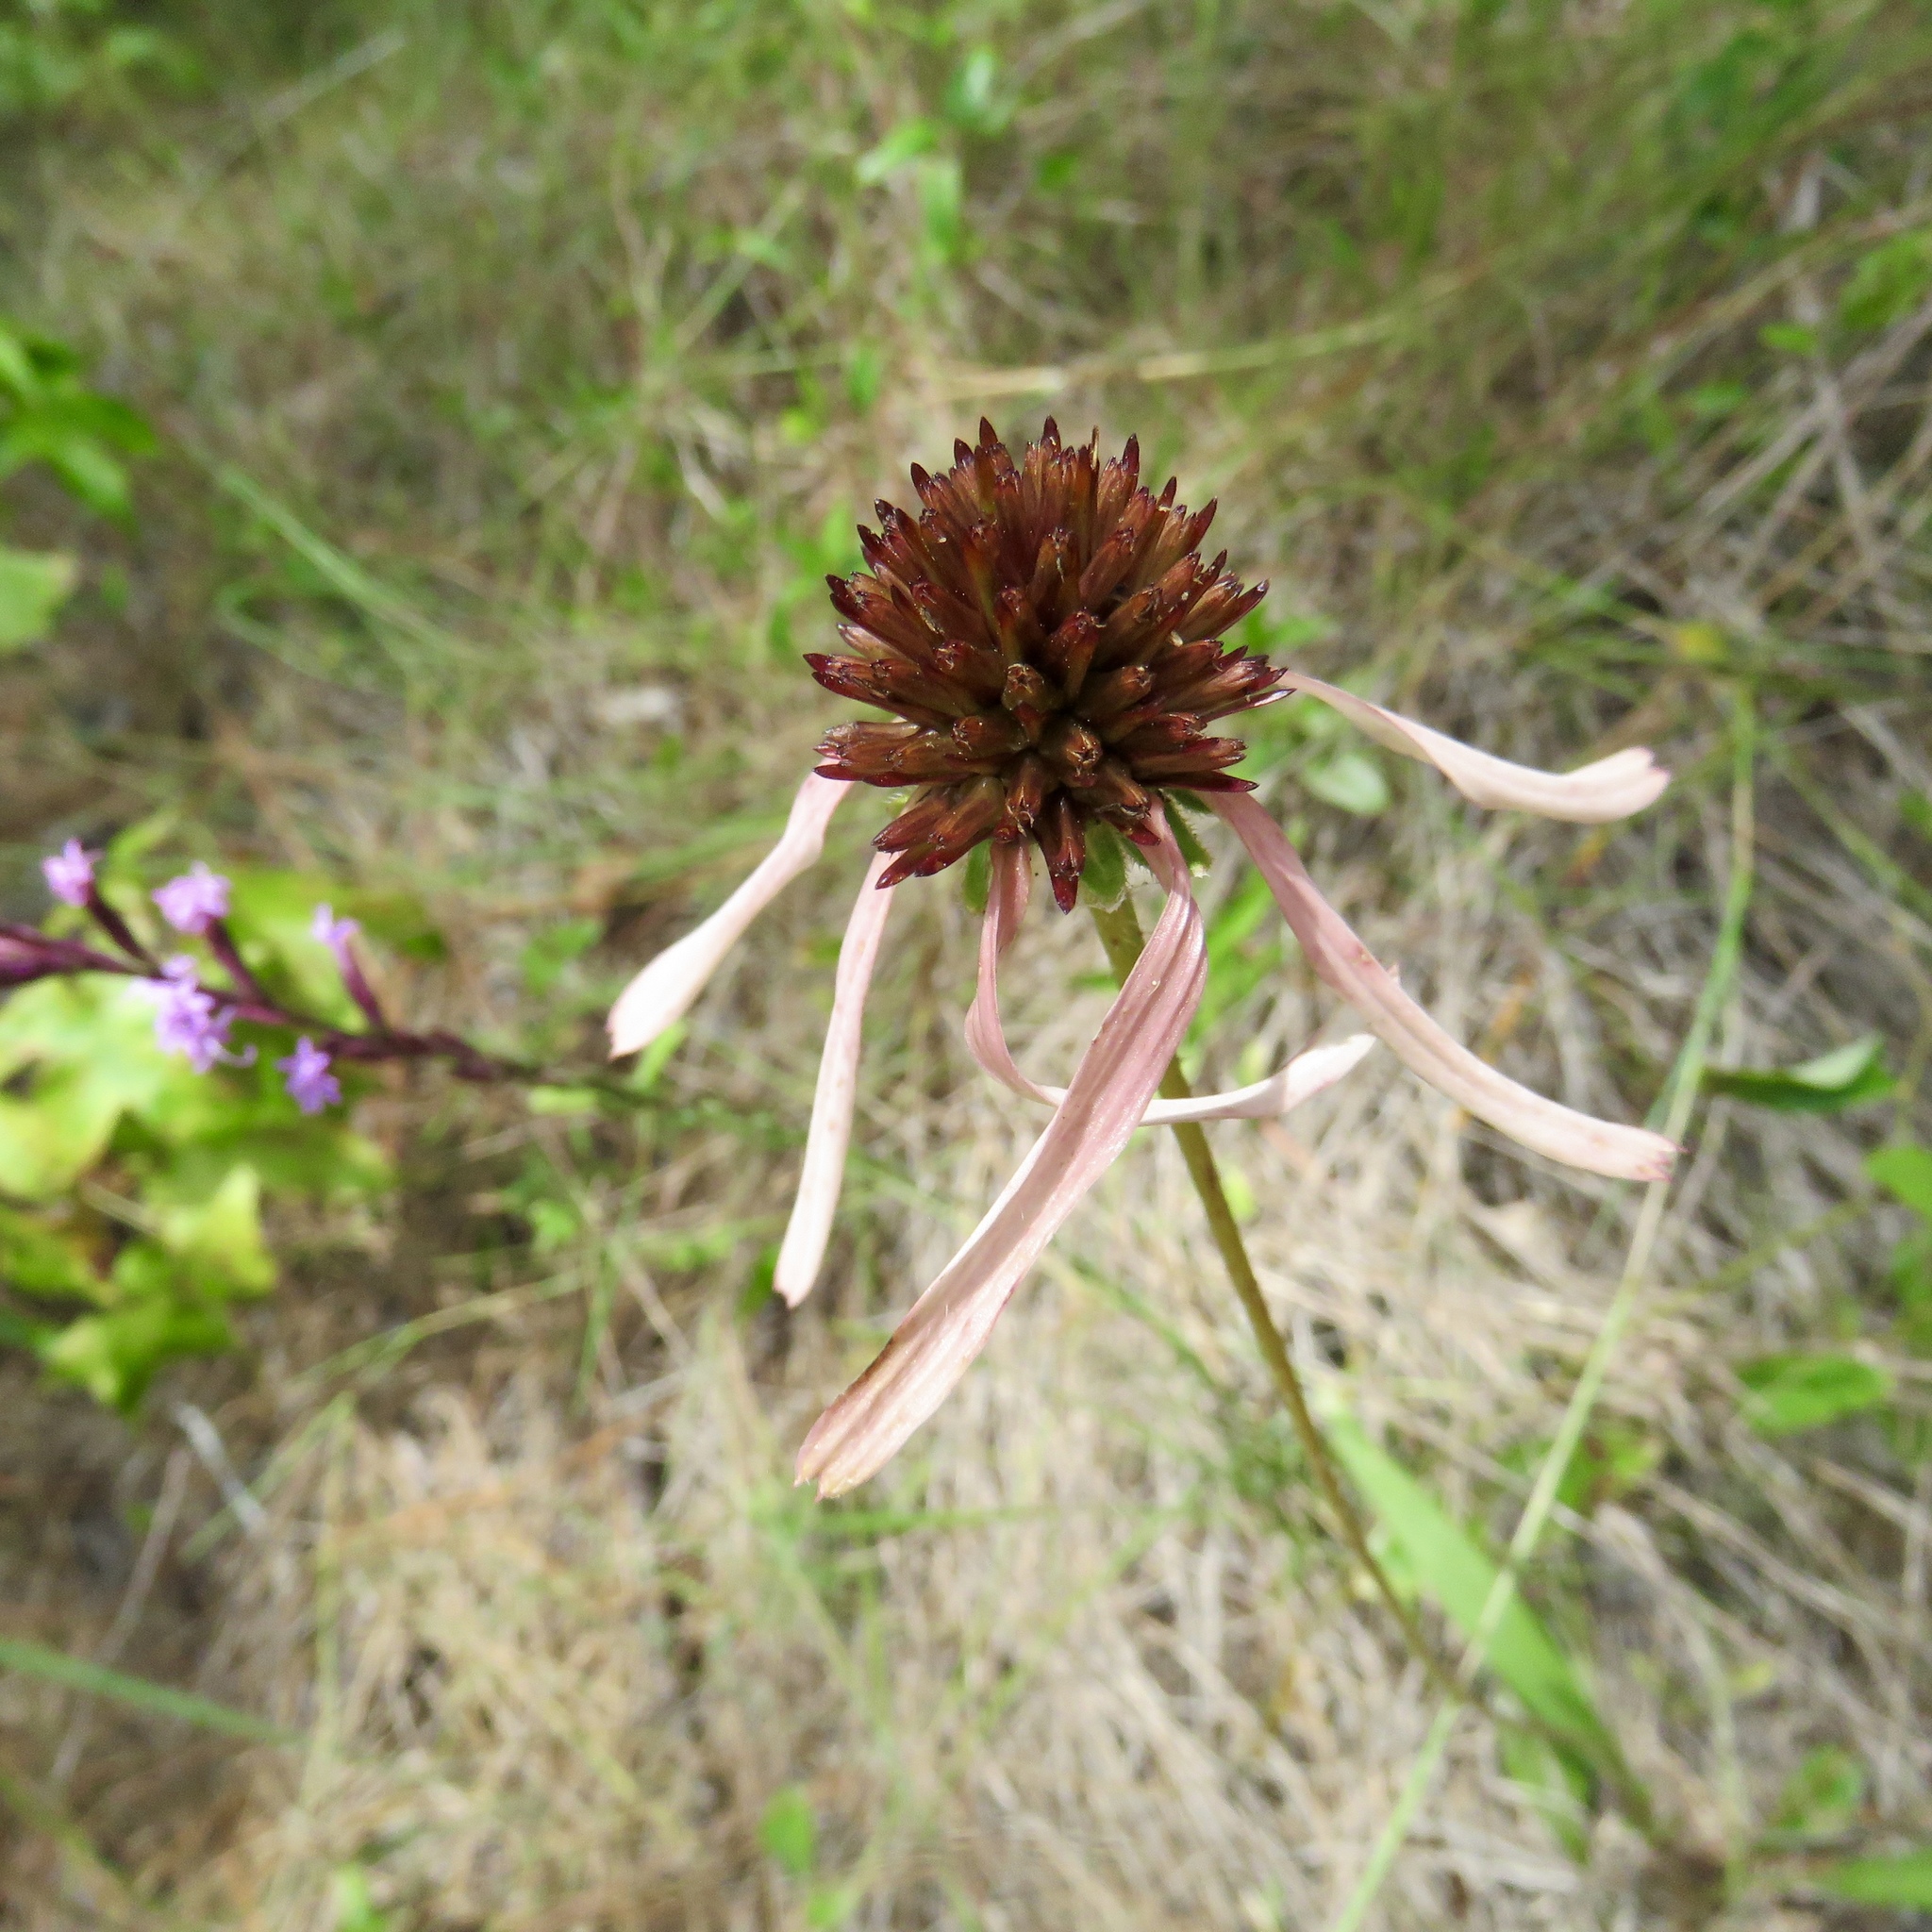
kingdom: Plantae
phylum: Tracheophyta
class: Magnoliopsida
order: Asterales
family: Asteraceae
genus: Echinacea
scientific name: Echinacea sanguinea
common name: Sanguine purple-coneflower
